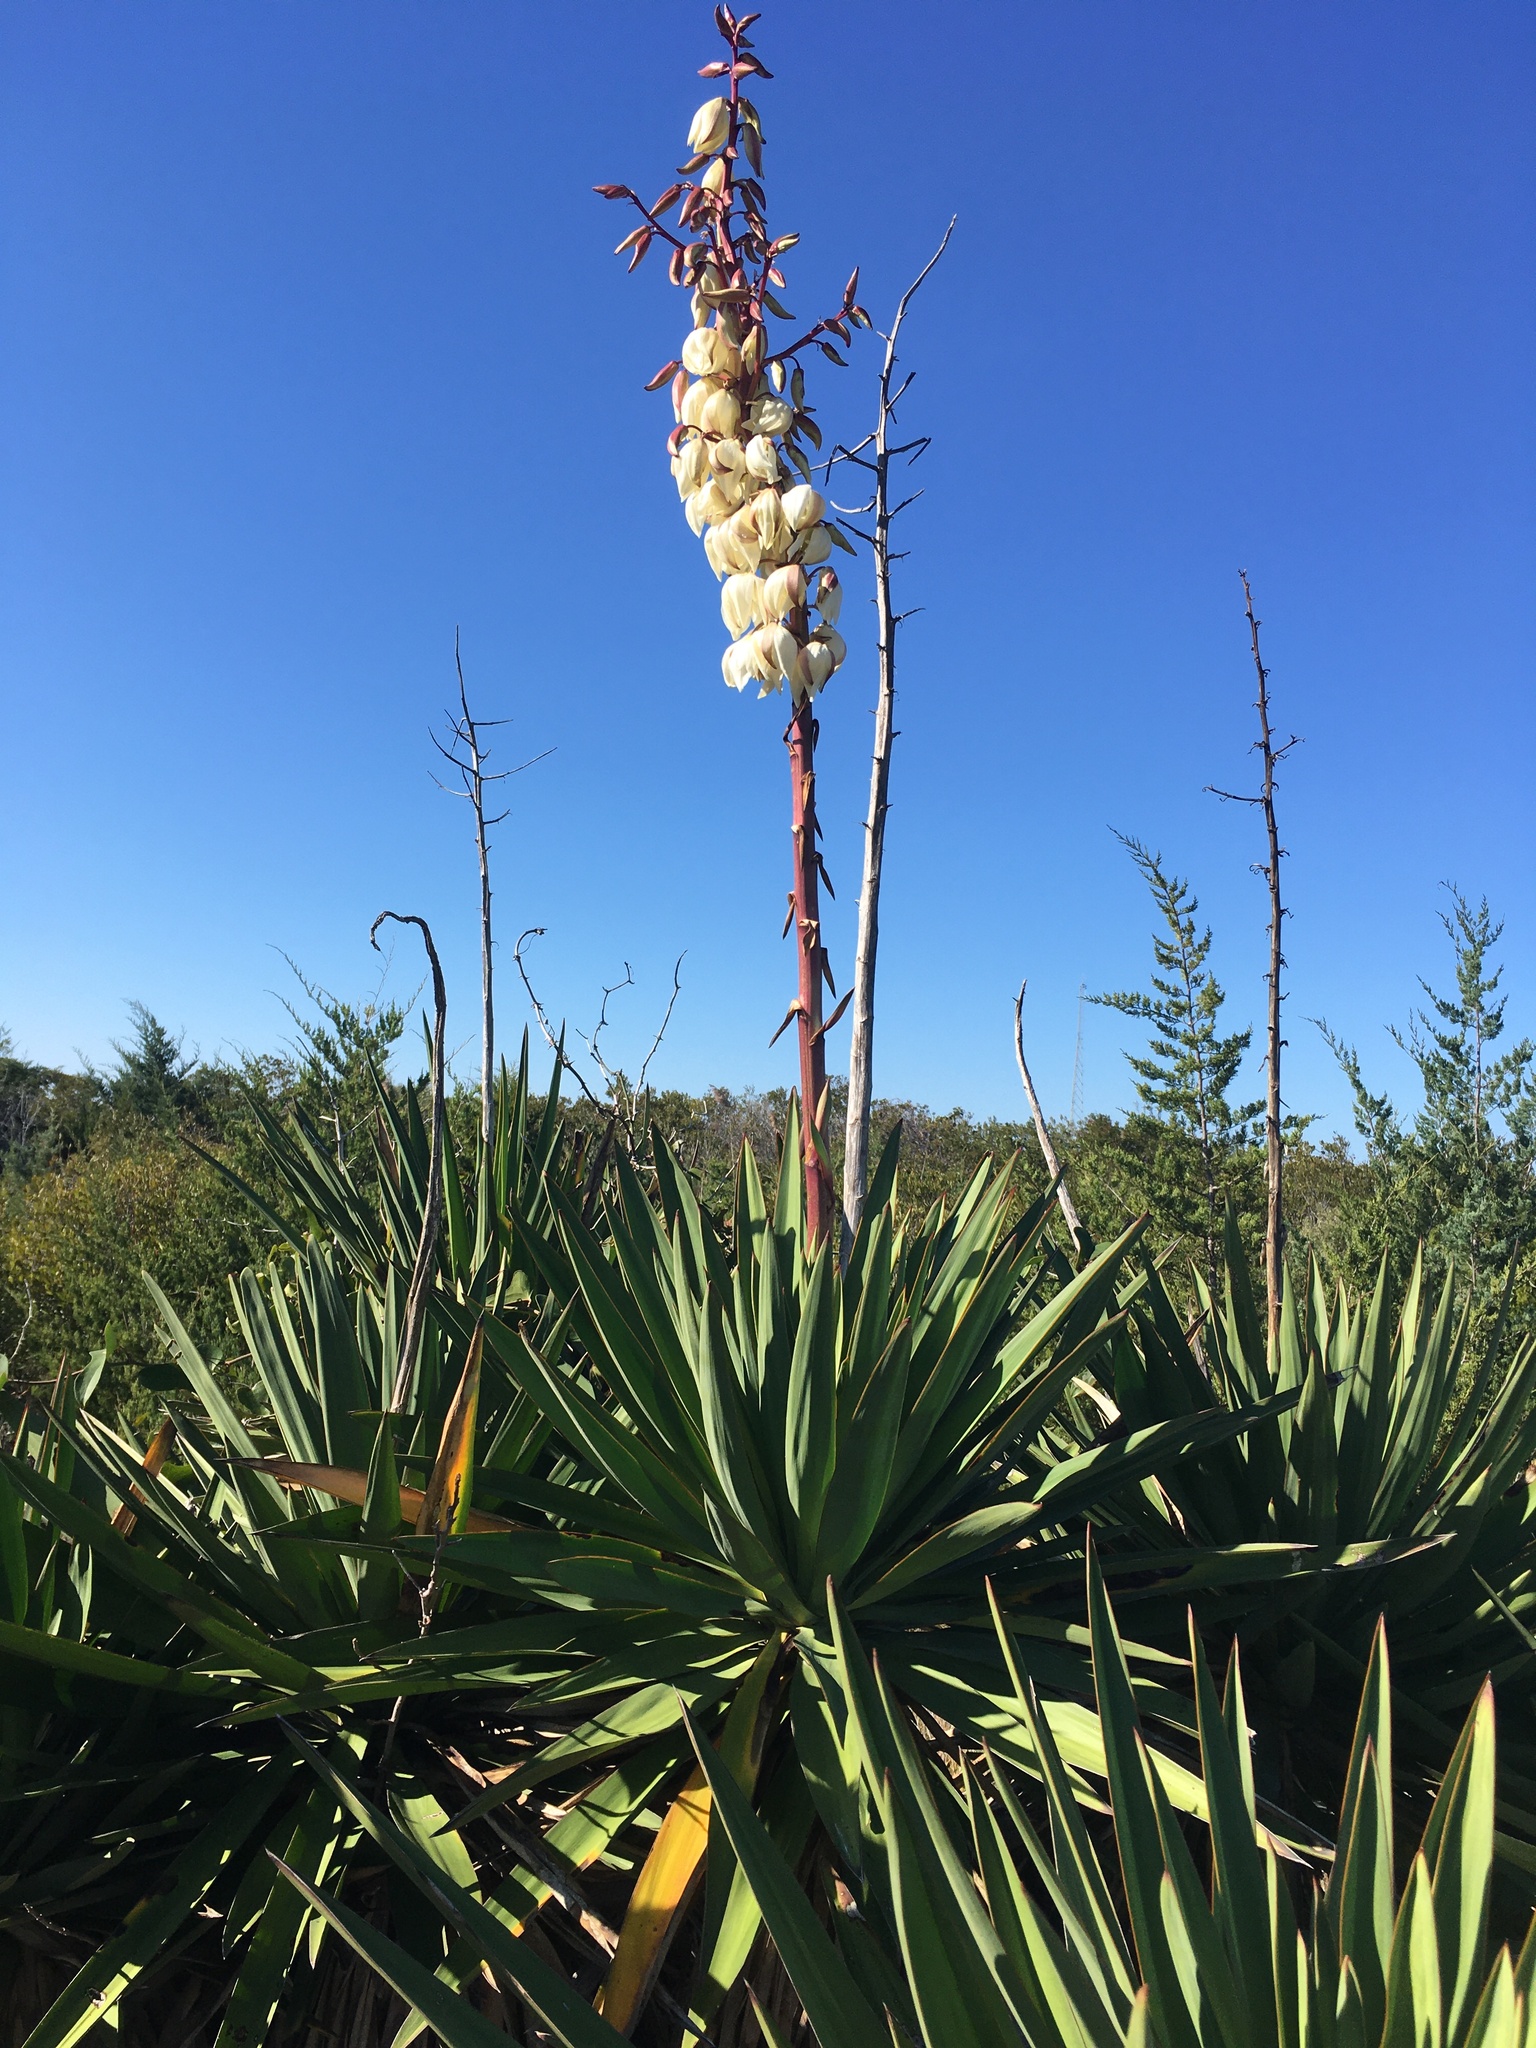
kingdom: Plantae
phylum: Tracheophyta
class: Liliopsida
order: Asparagales
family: Asparagaceae
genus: Yucca
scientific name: Yucca gloriosa
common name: Spanish-dagger
